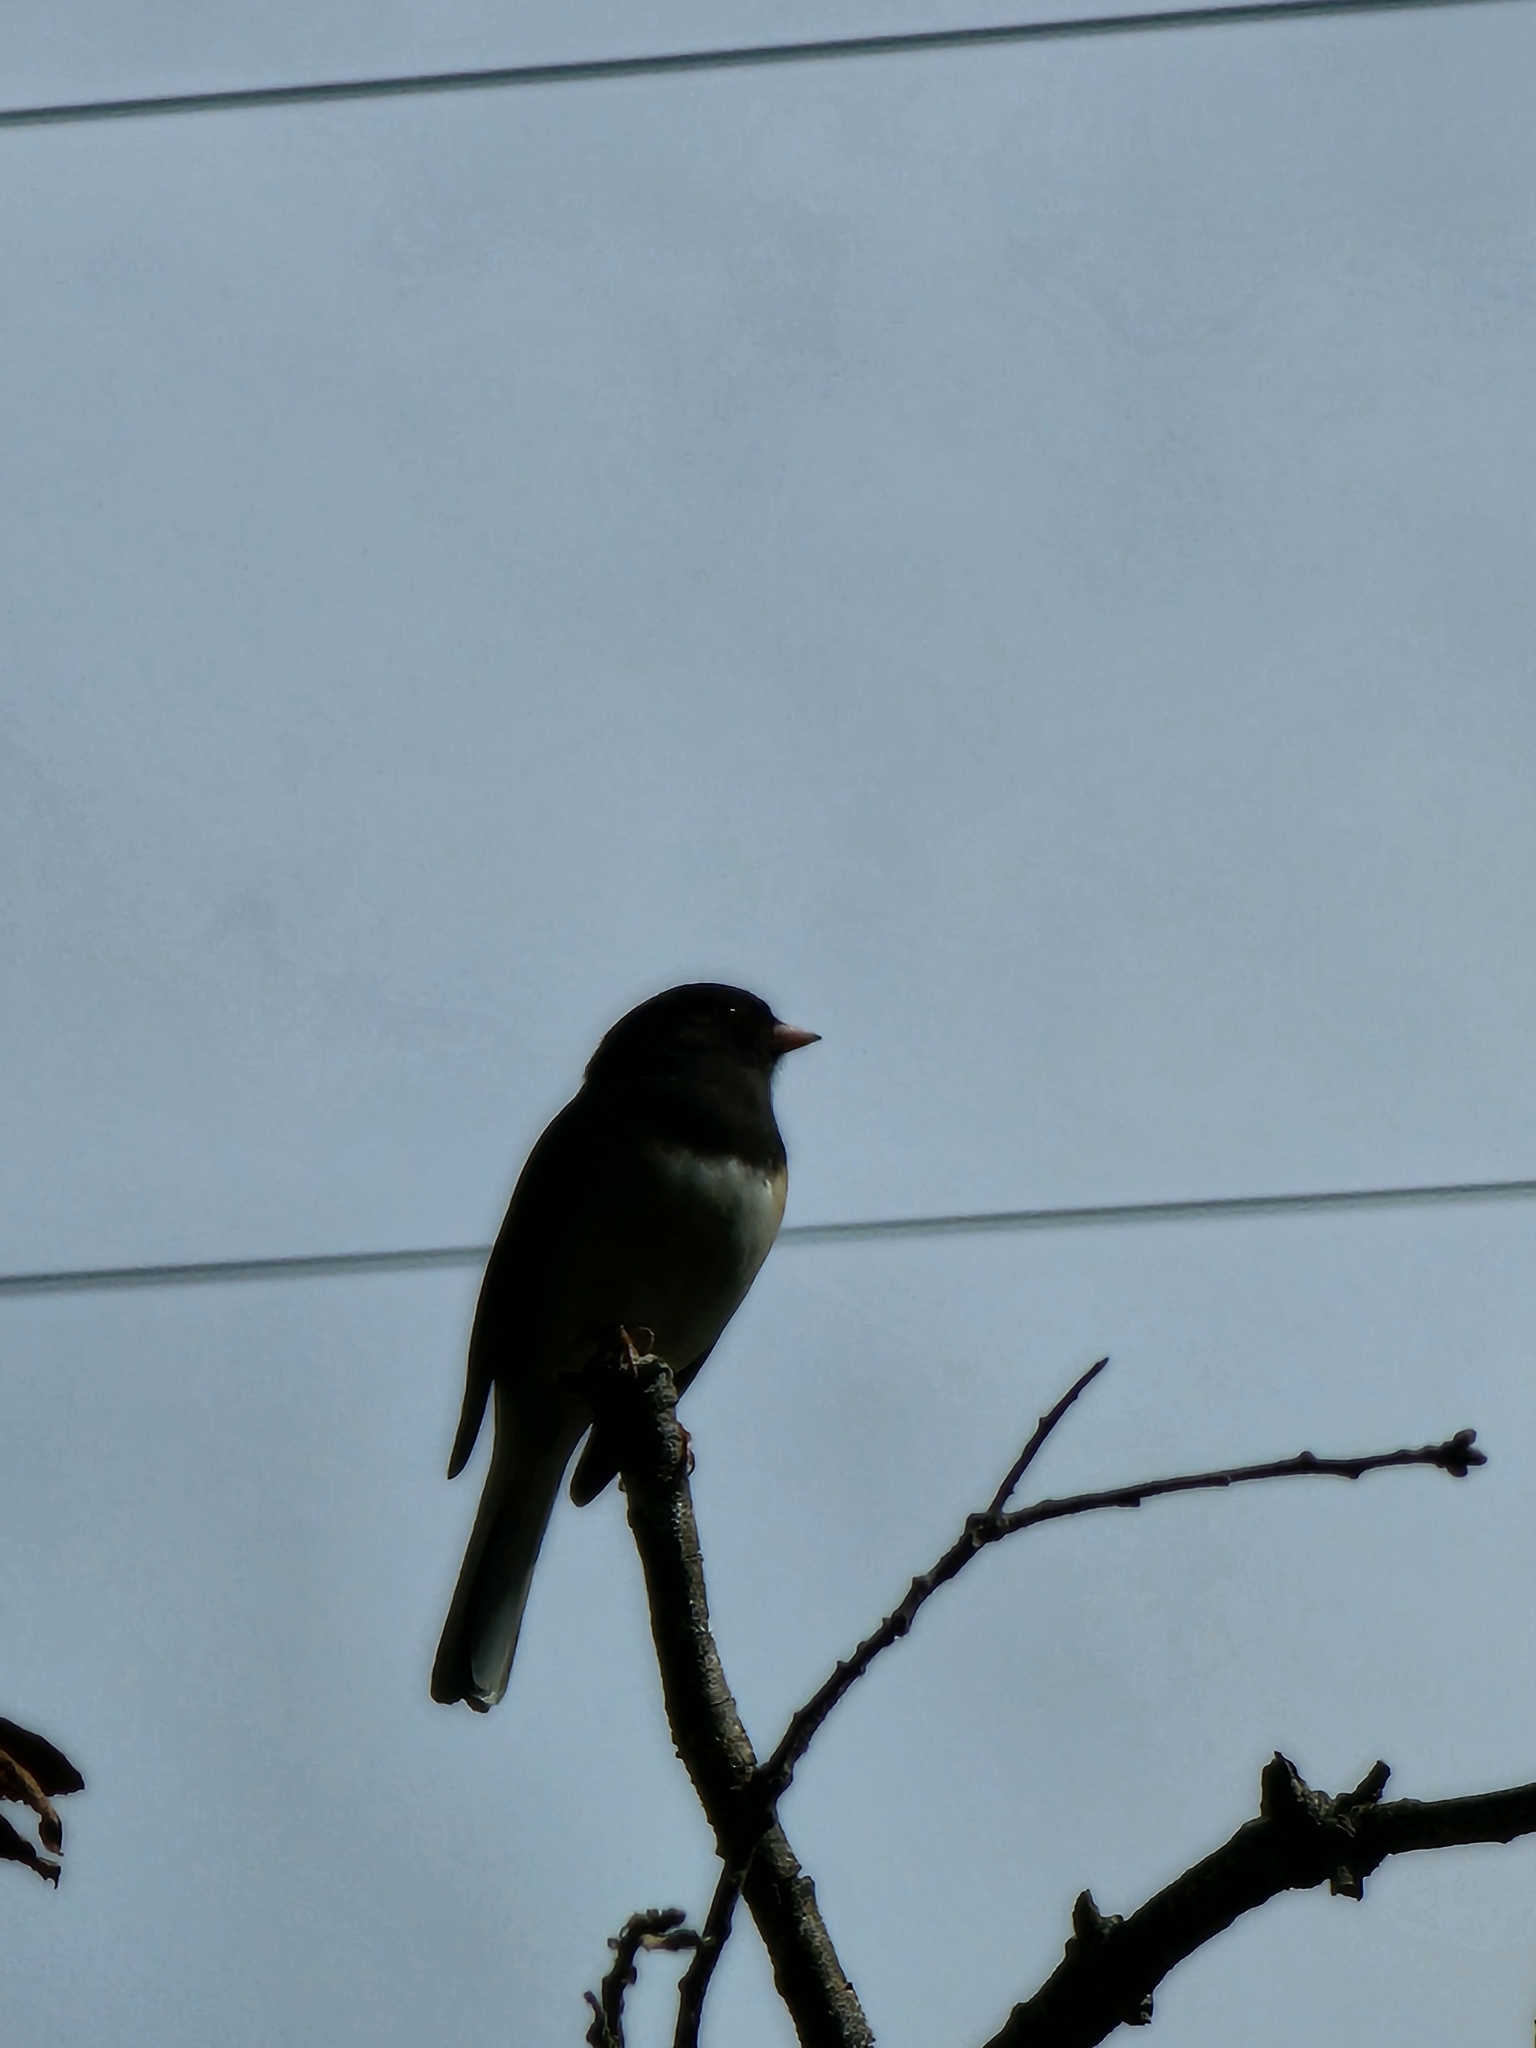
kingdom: Animalia
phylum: Chordata
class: Aves
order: Passeriformes
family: Passerellidae
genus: Junco
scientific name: Junco hyemalis
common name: Dark-eyed junco
